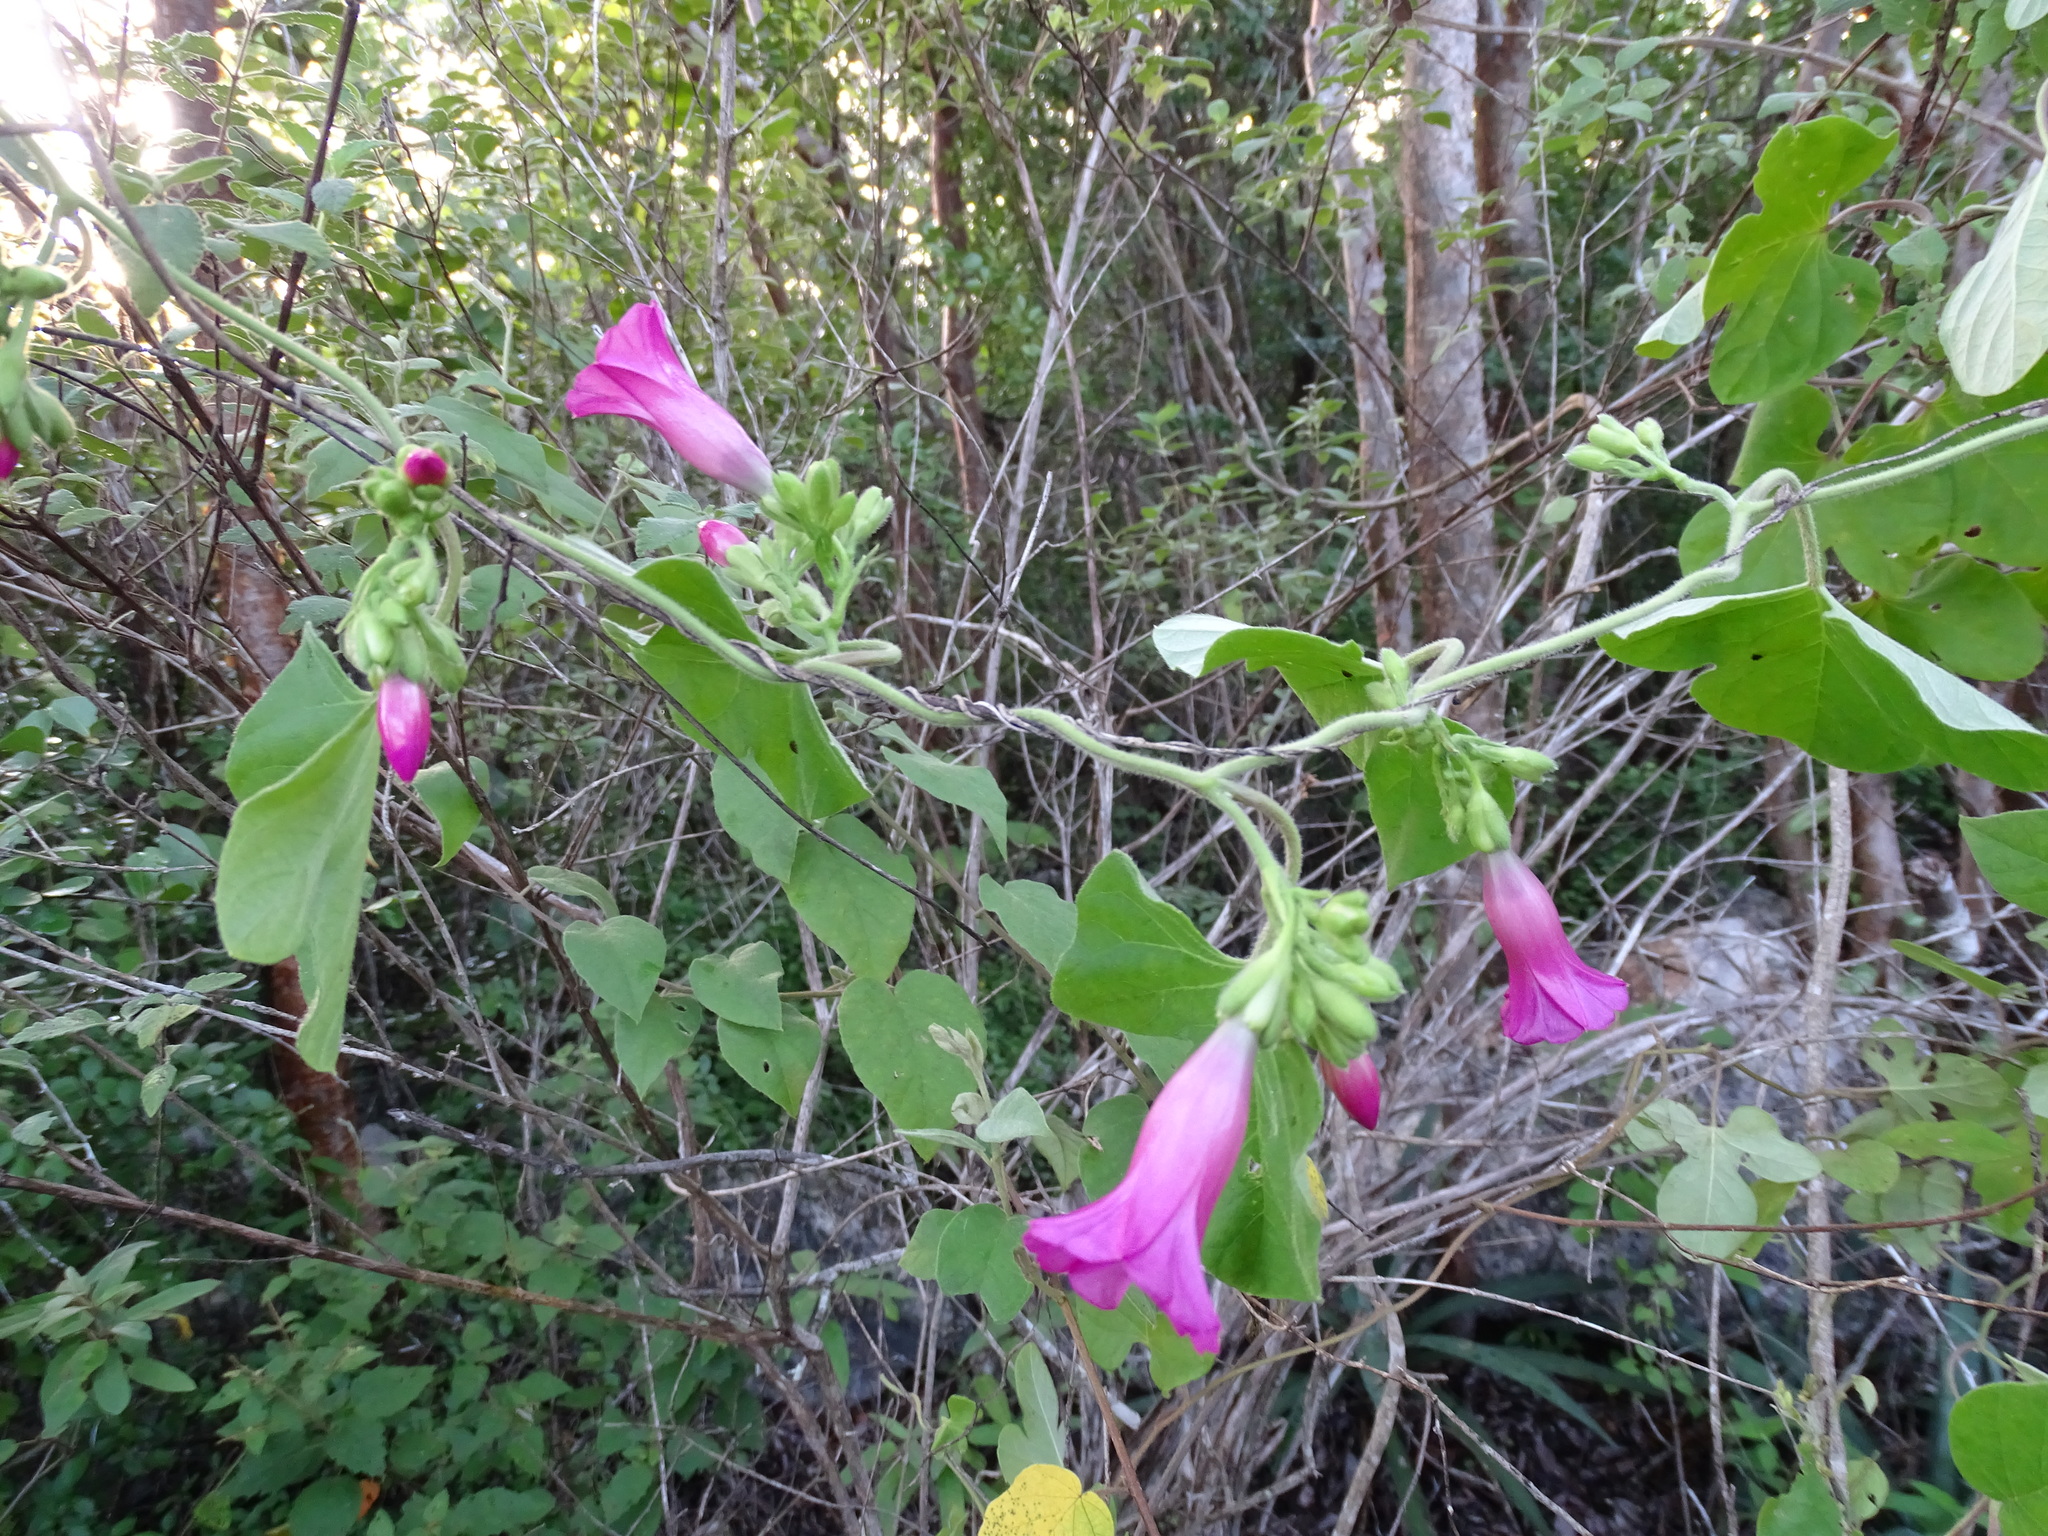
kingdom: Plantae
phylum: Tracheophyta
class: Magnoliopsida
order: Solanales
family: Convolvulaceae
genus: Ipomoea
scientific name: Ipomoea peteri
